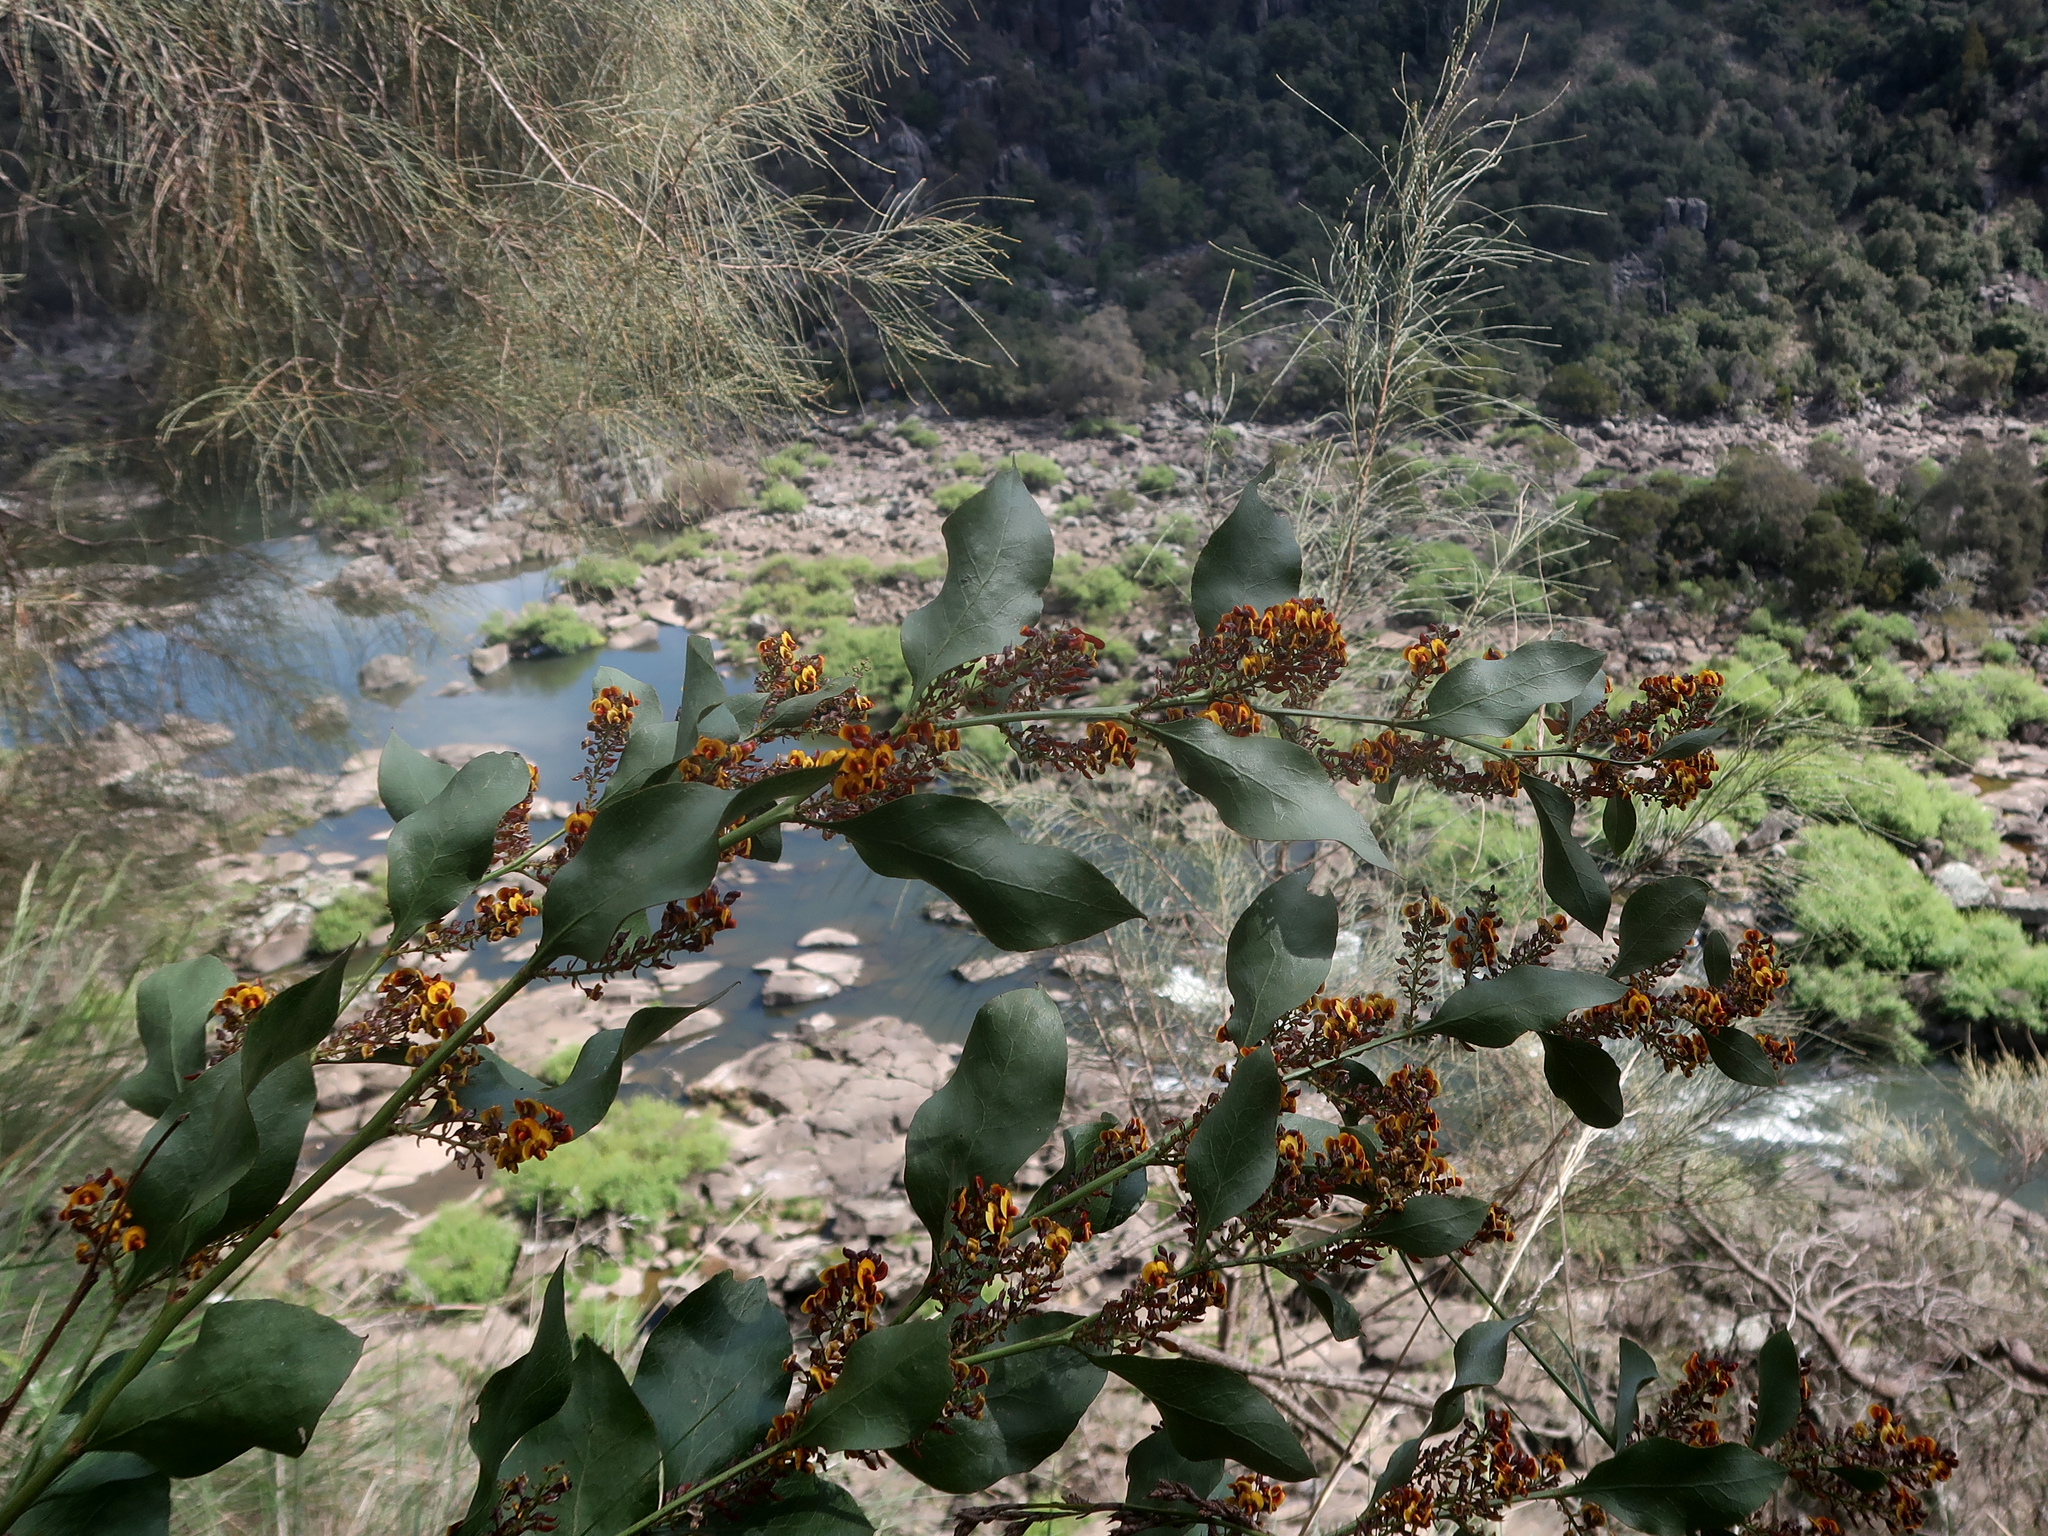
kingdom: Plantae
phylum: Tracheophyta
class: Magnoliopsida
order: Fabales
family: Fabaceae
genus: Daviesia
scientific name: Daviesia latifolia
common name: Hop bitter-pea
